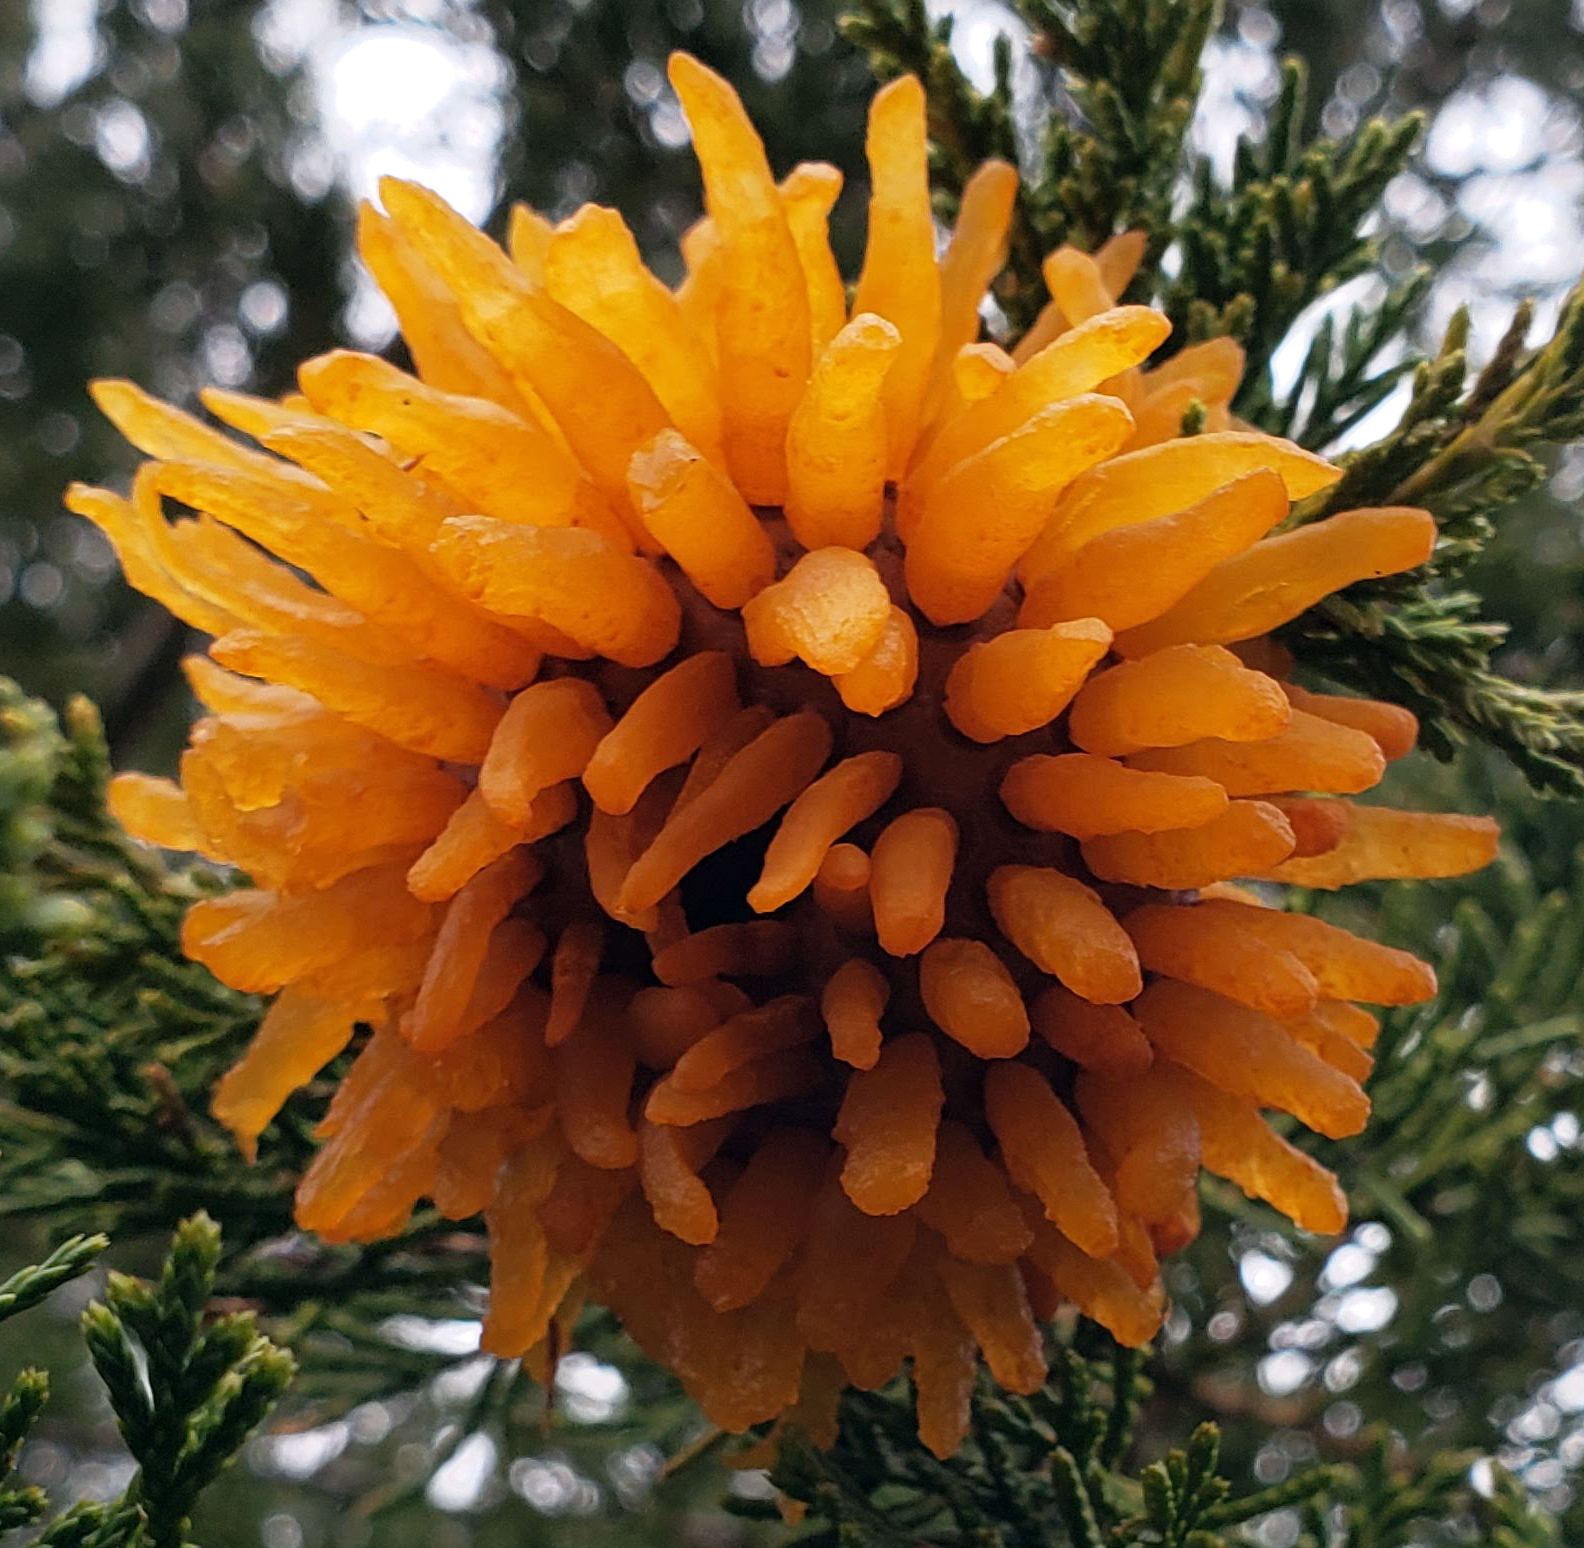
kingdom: Fungi
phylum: Basidiomycota
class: Pucciniomycetes
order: Pucciniales
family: Gymnosporangiaceae
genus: Gymnosporangium
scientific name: Gymnosporangium juniperi-virginianae
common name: Juniper-apple rust
